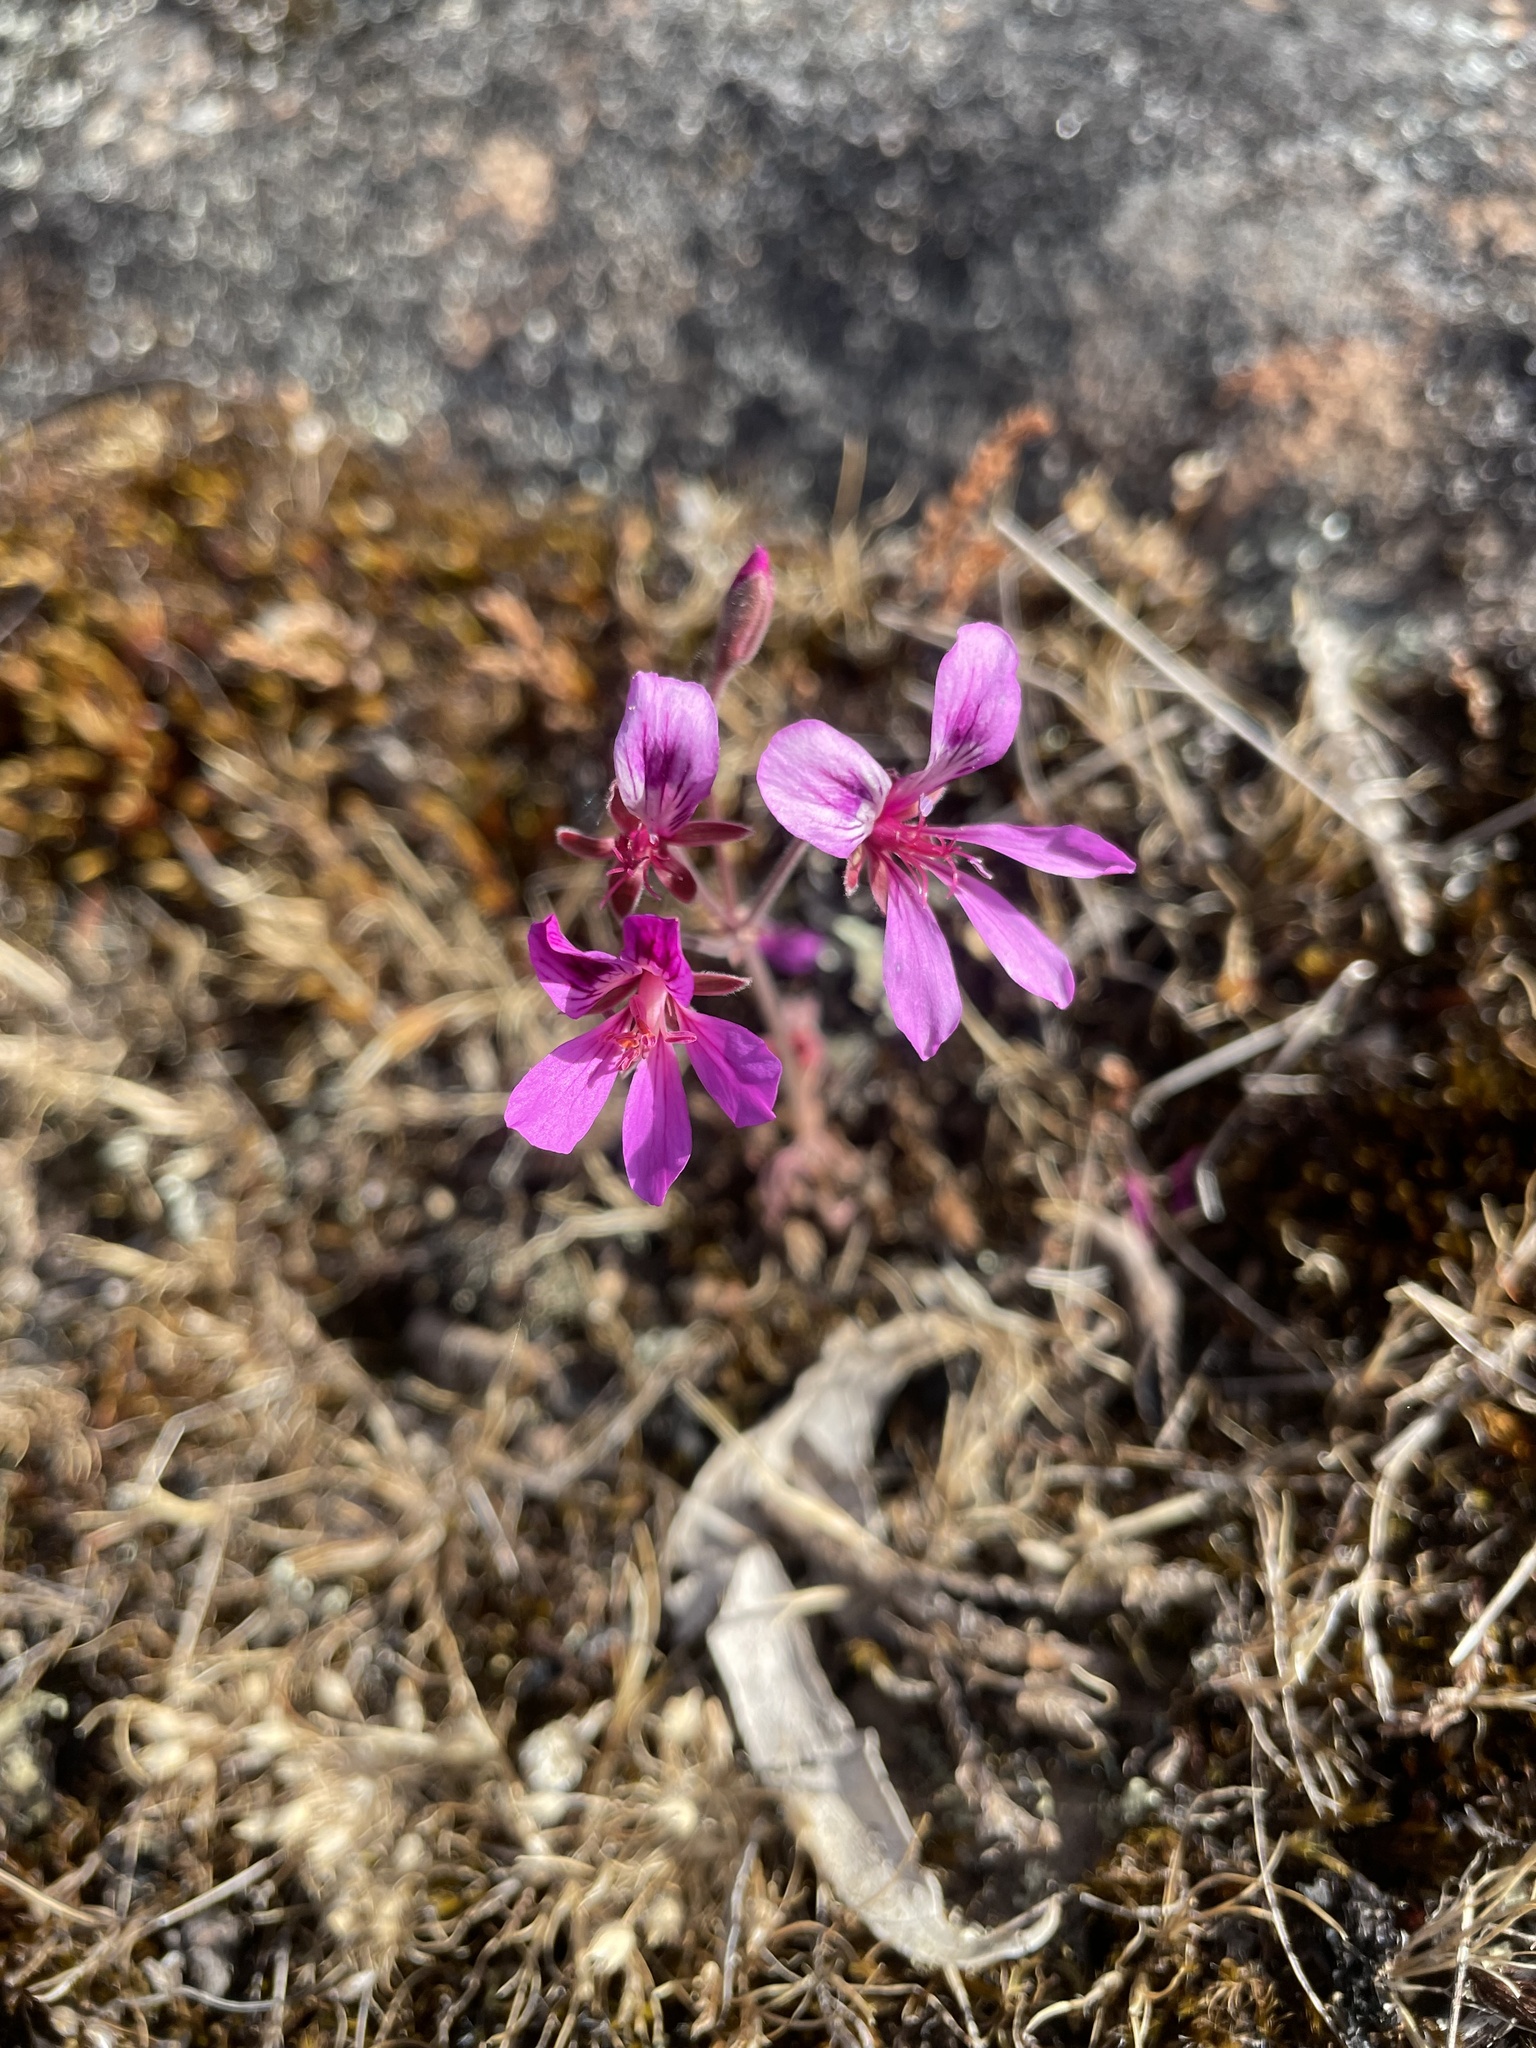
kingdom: Plantae
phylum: Tracheophyta
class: Magnoliopsida
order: Geraniales
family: Geraniaceae
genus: Pelargonium
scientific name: Pelargonium rodneyanum
